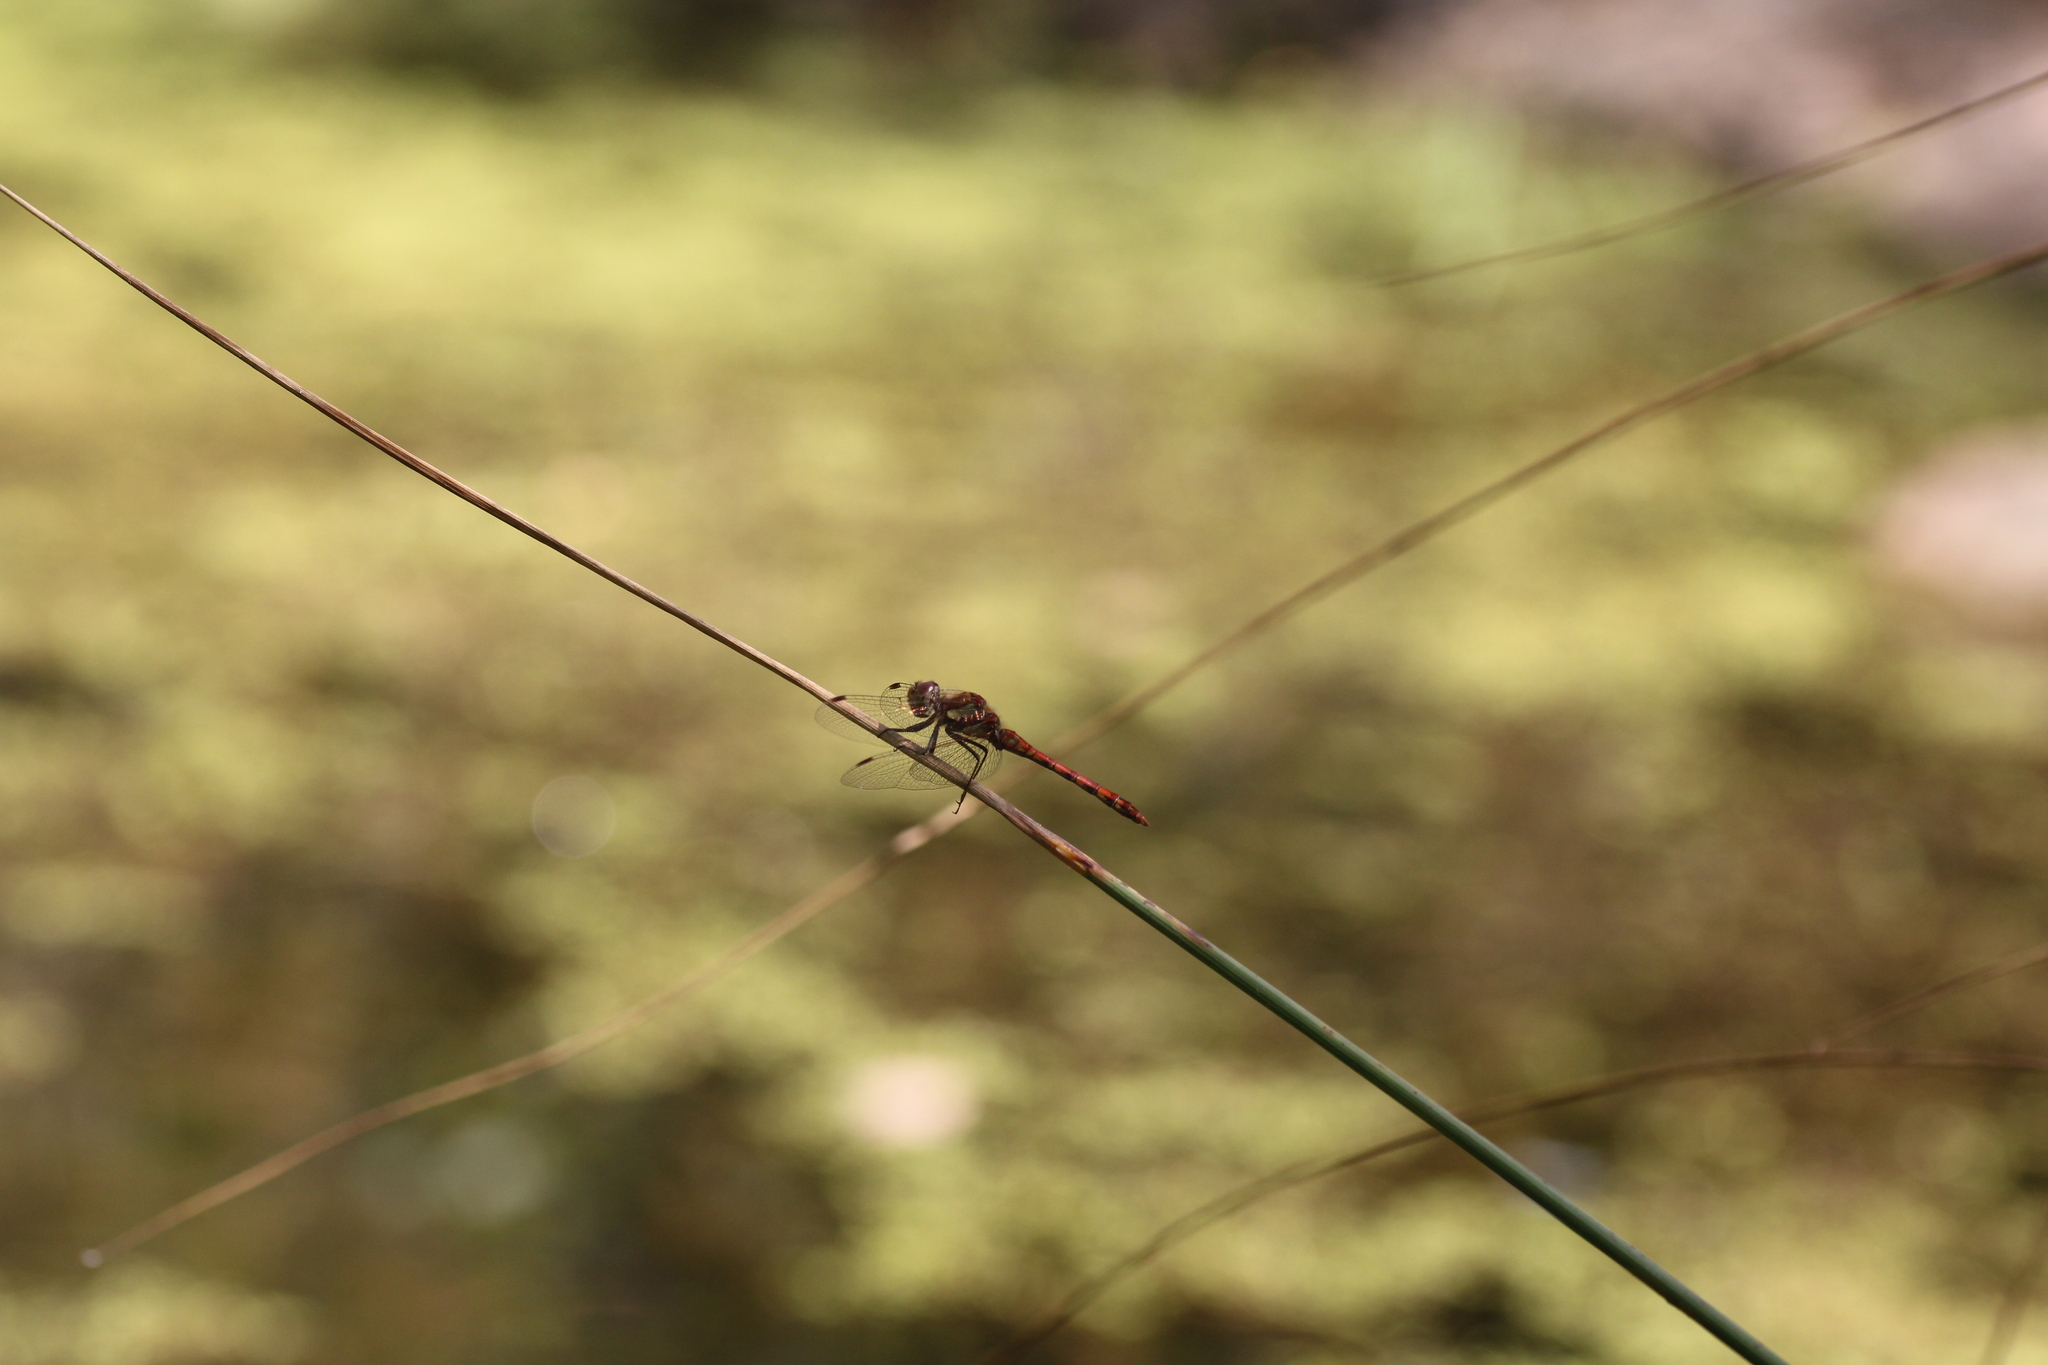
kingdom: Animalia
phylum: Arthropoda
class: Insecta
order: Odonata
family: Libellulidae
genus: Sympetrum
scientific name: Sympetrum striolatum
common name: Common darter
